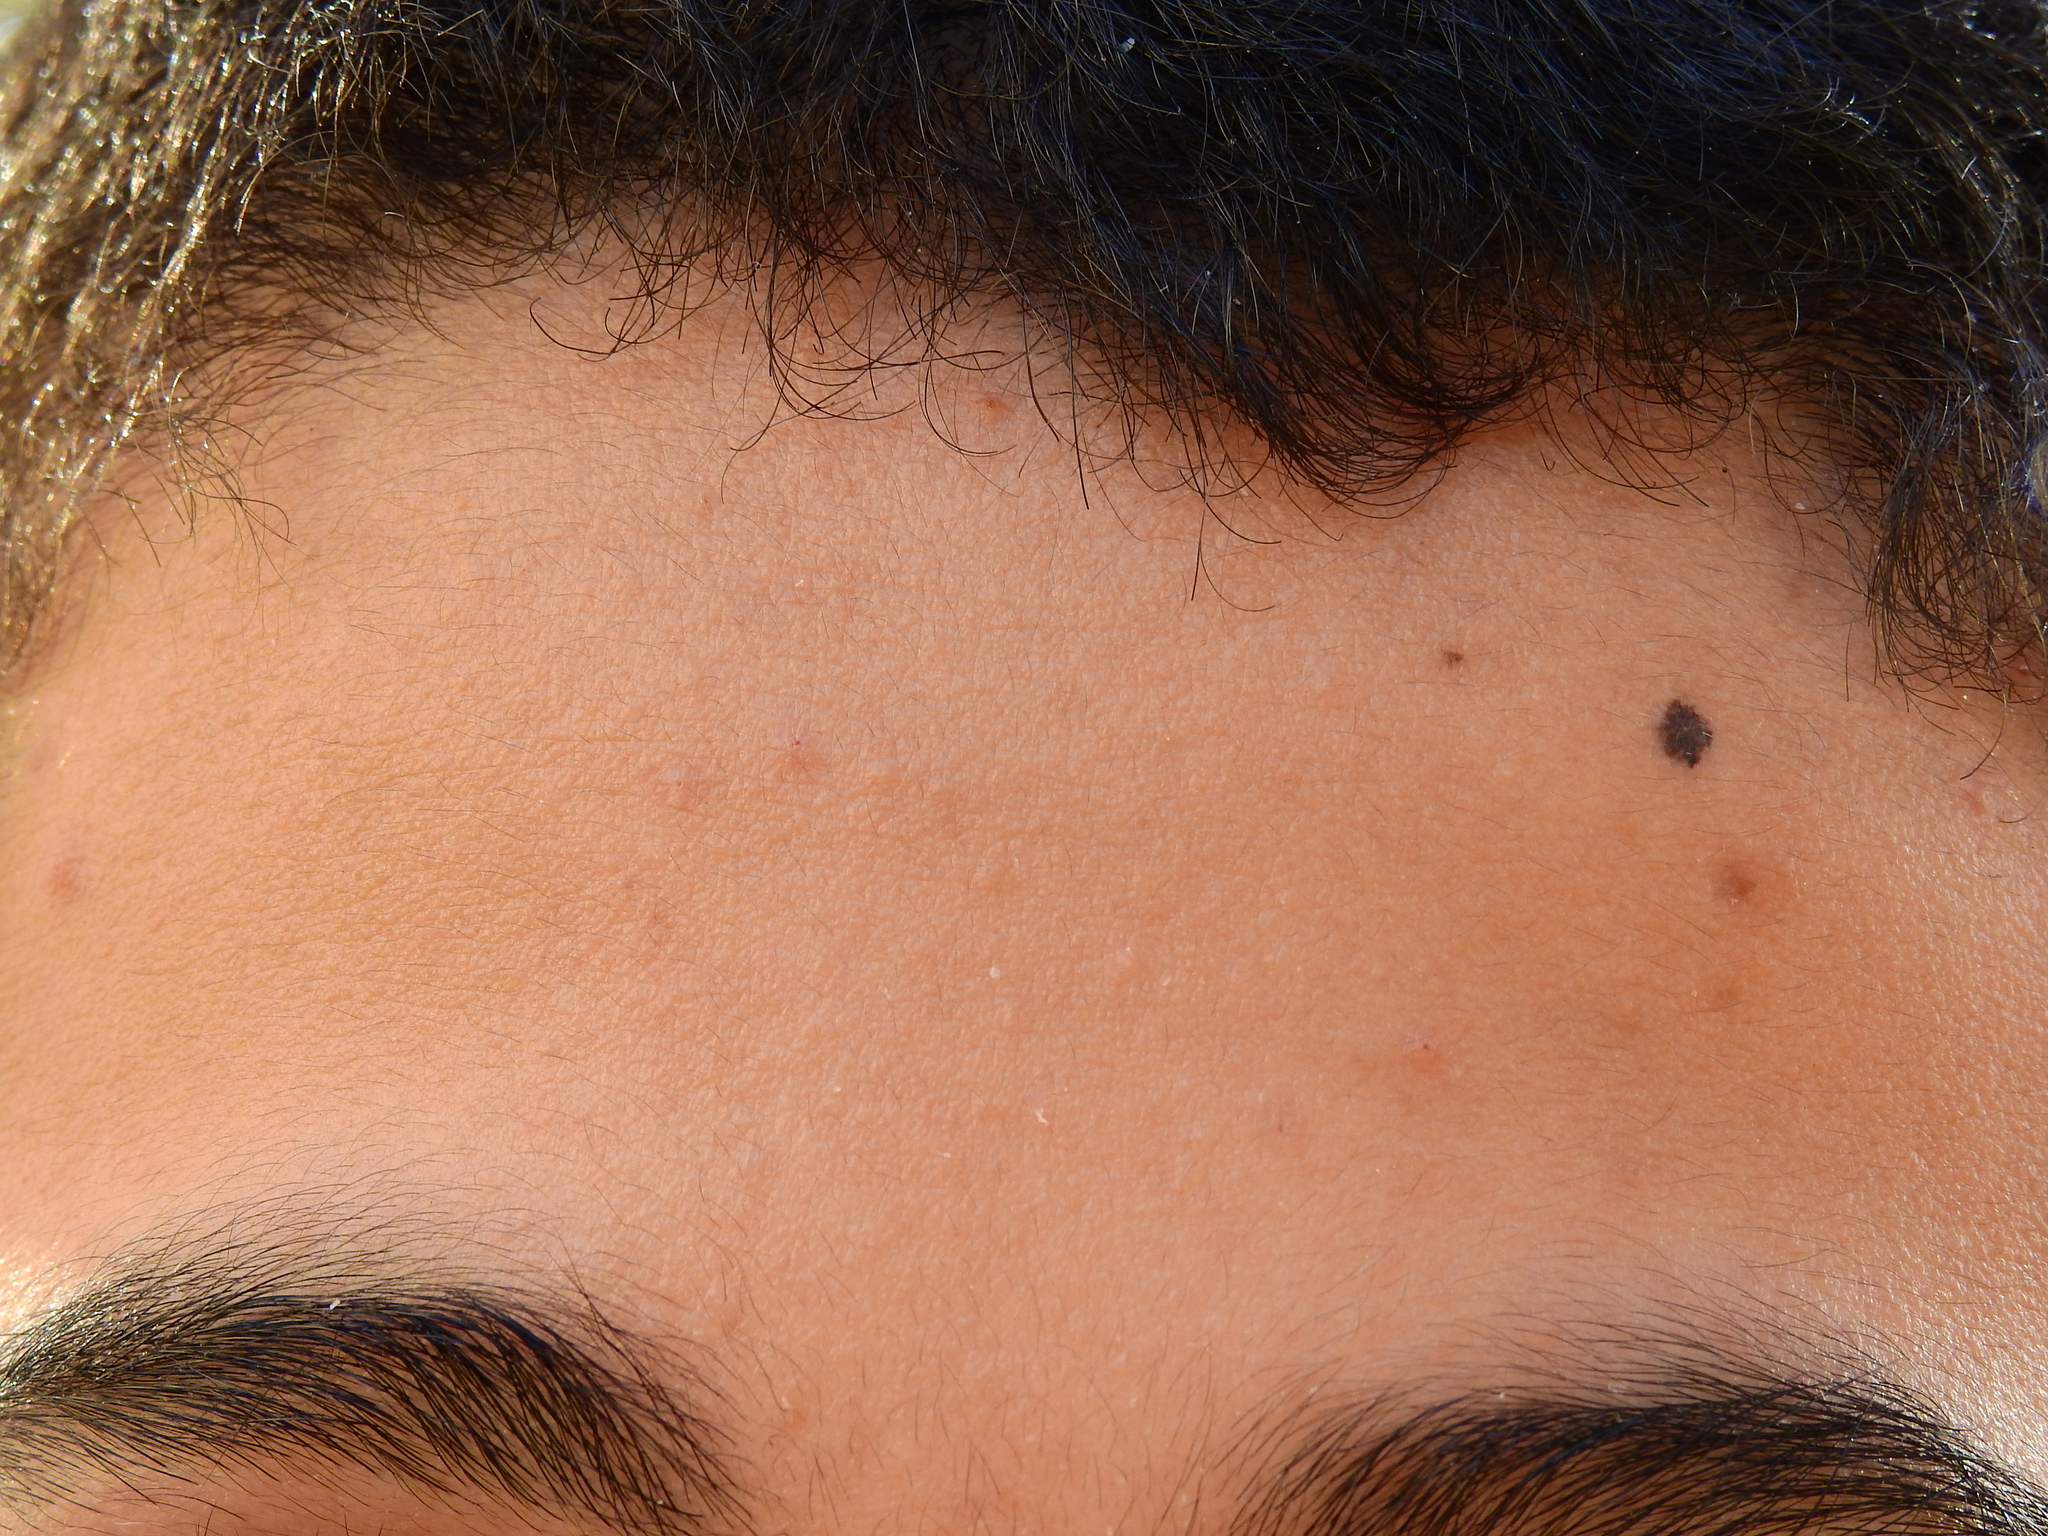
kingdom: Bacteria
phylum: Actinobacteriota
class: Actinomycetia
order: Propionibacteriales
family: Propionibacteriaceae
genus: Cutibacterium
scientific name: Cutibacterium acnes
